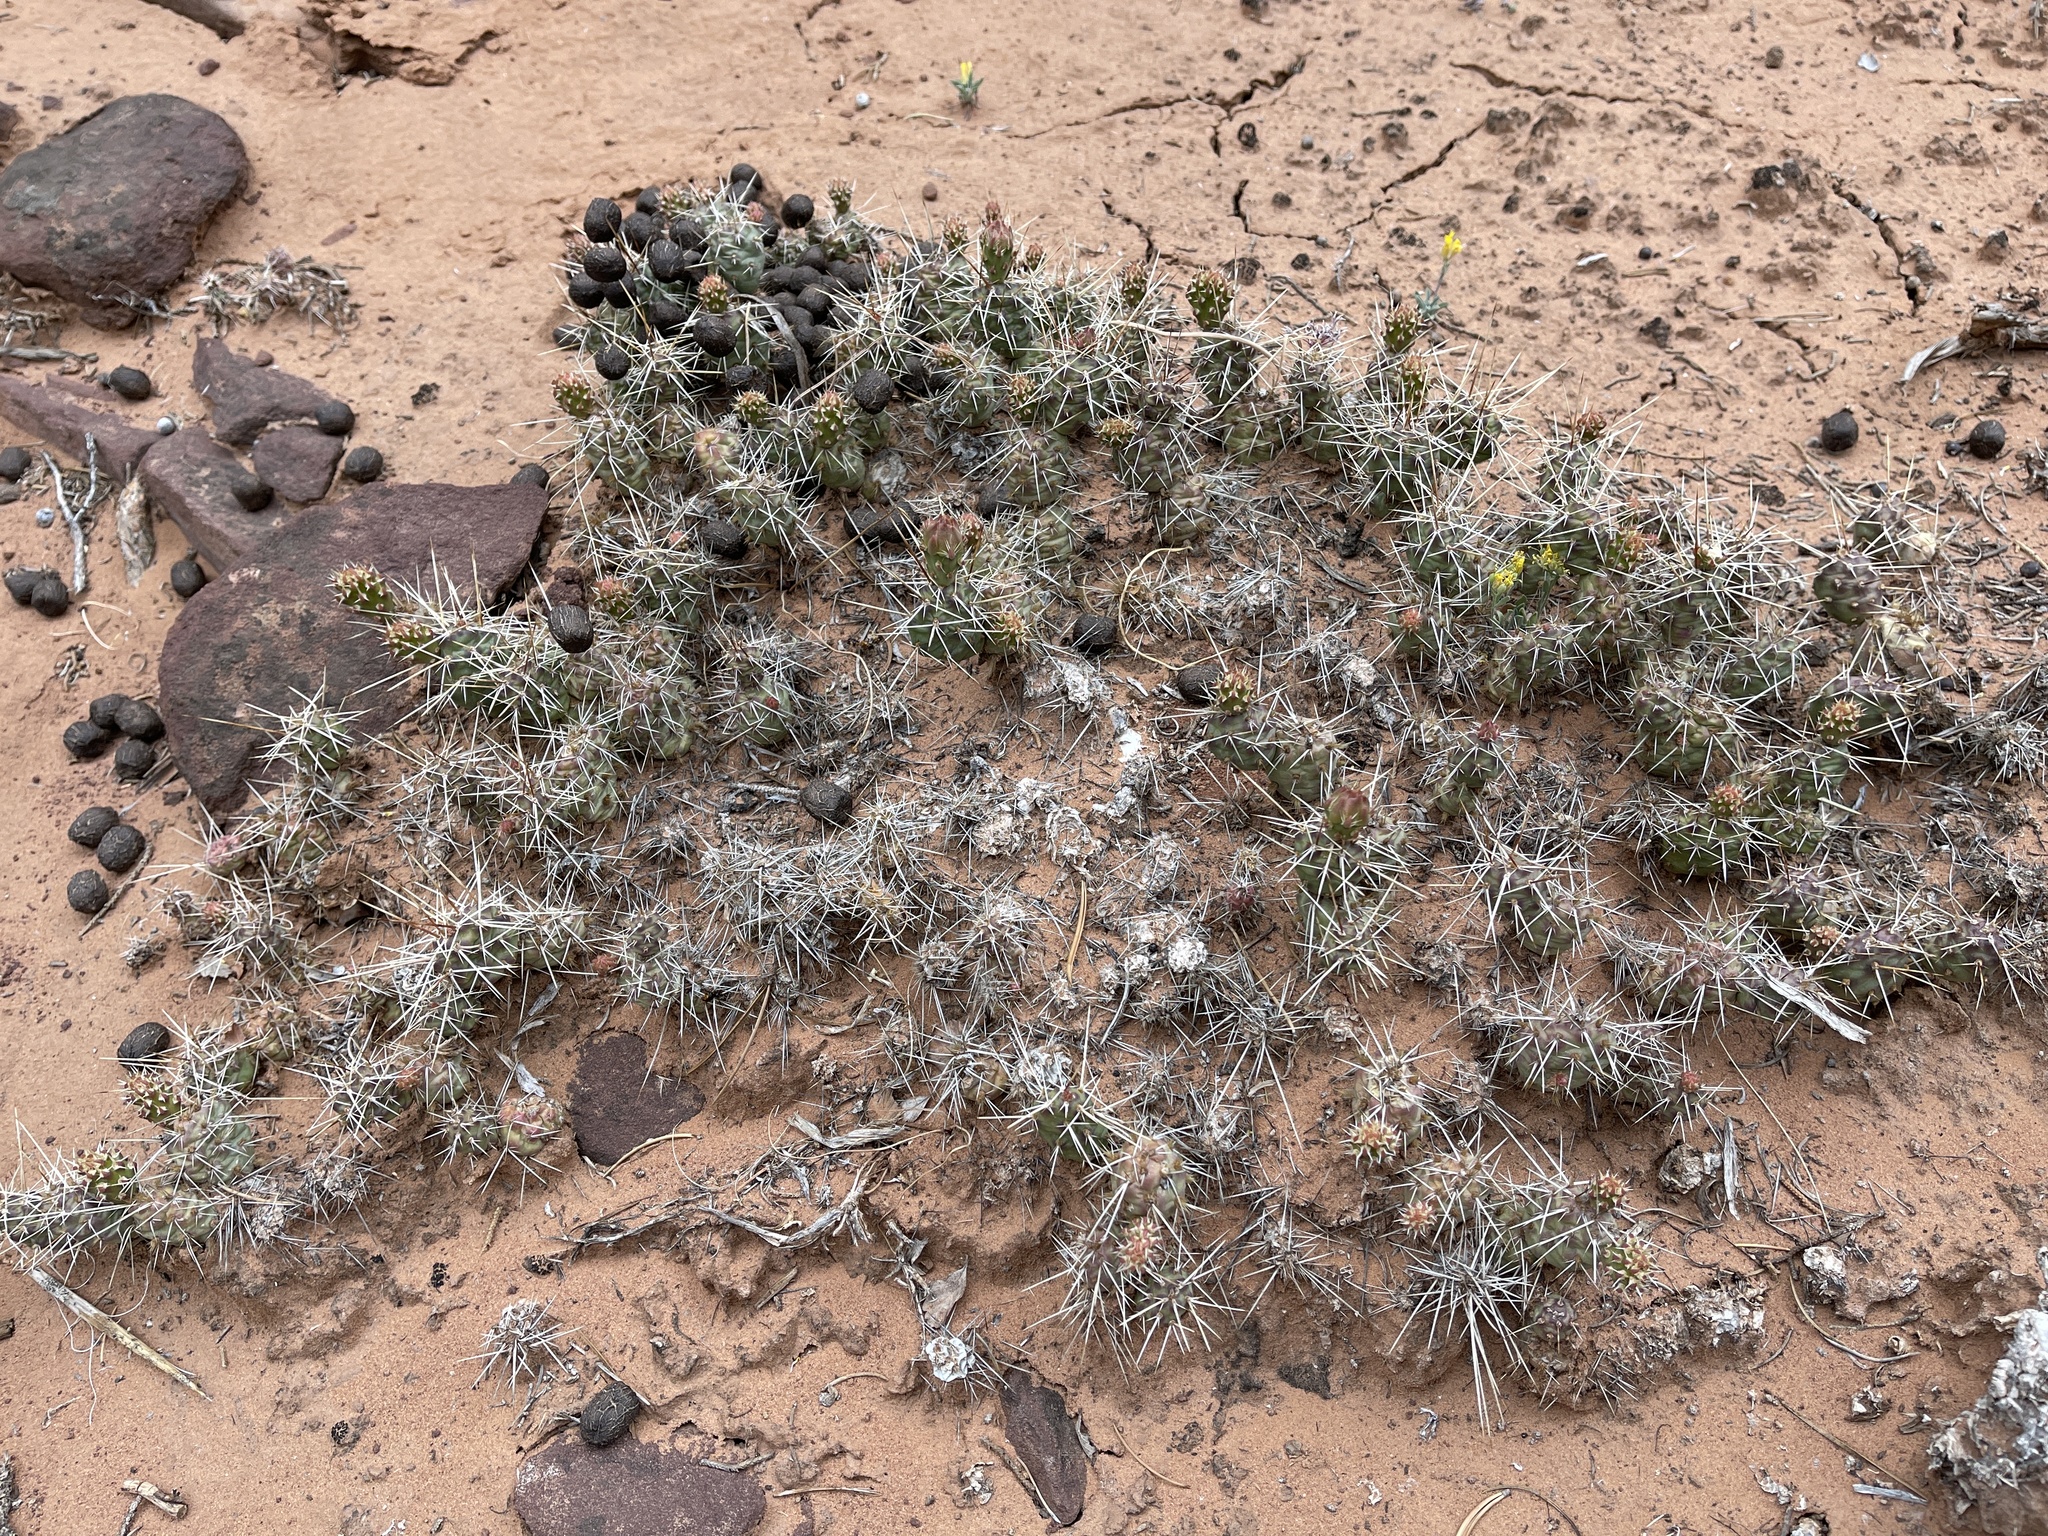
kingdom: Plantae
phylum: Tracheophyta
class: Magnoliopsida
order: Caryophyllales
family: Cactaceae
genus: Opuntia
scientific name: Opuntia fragilis
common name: Brittle cactus
